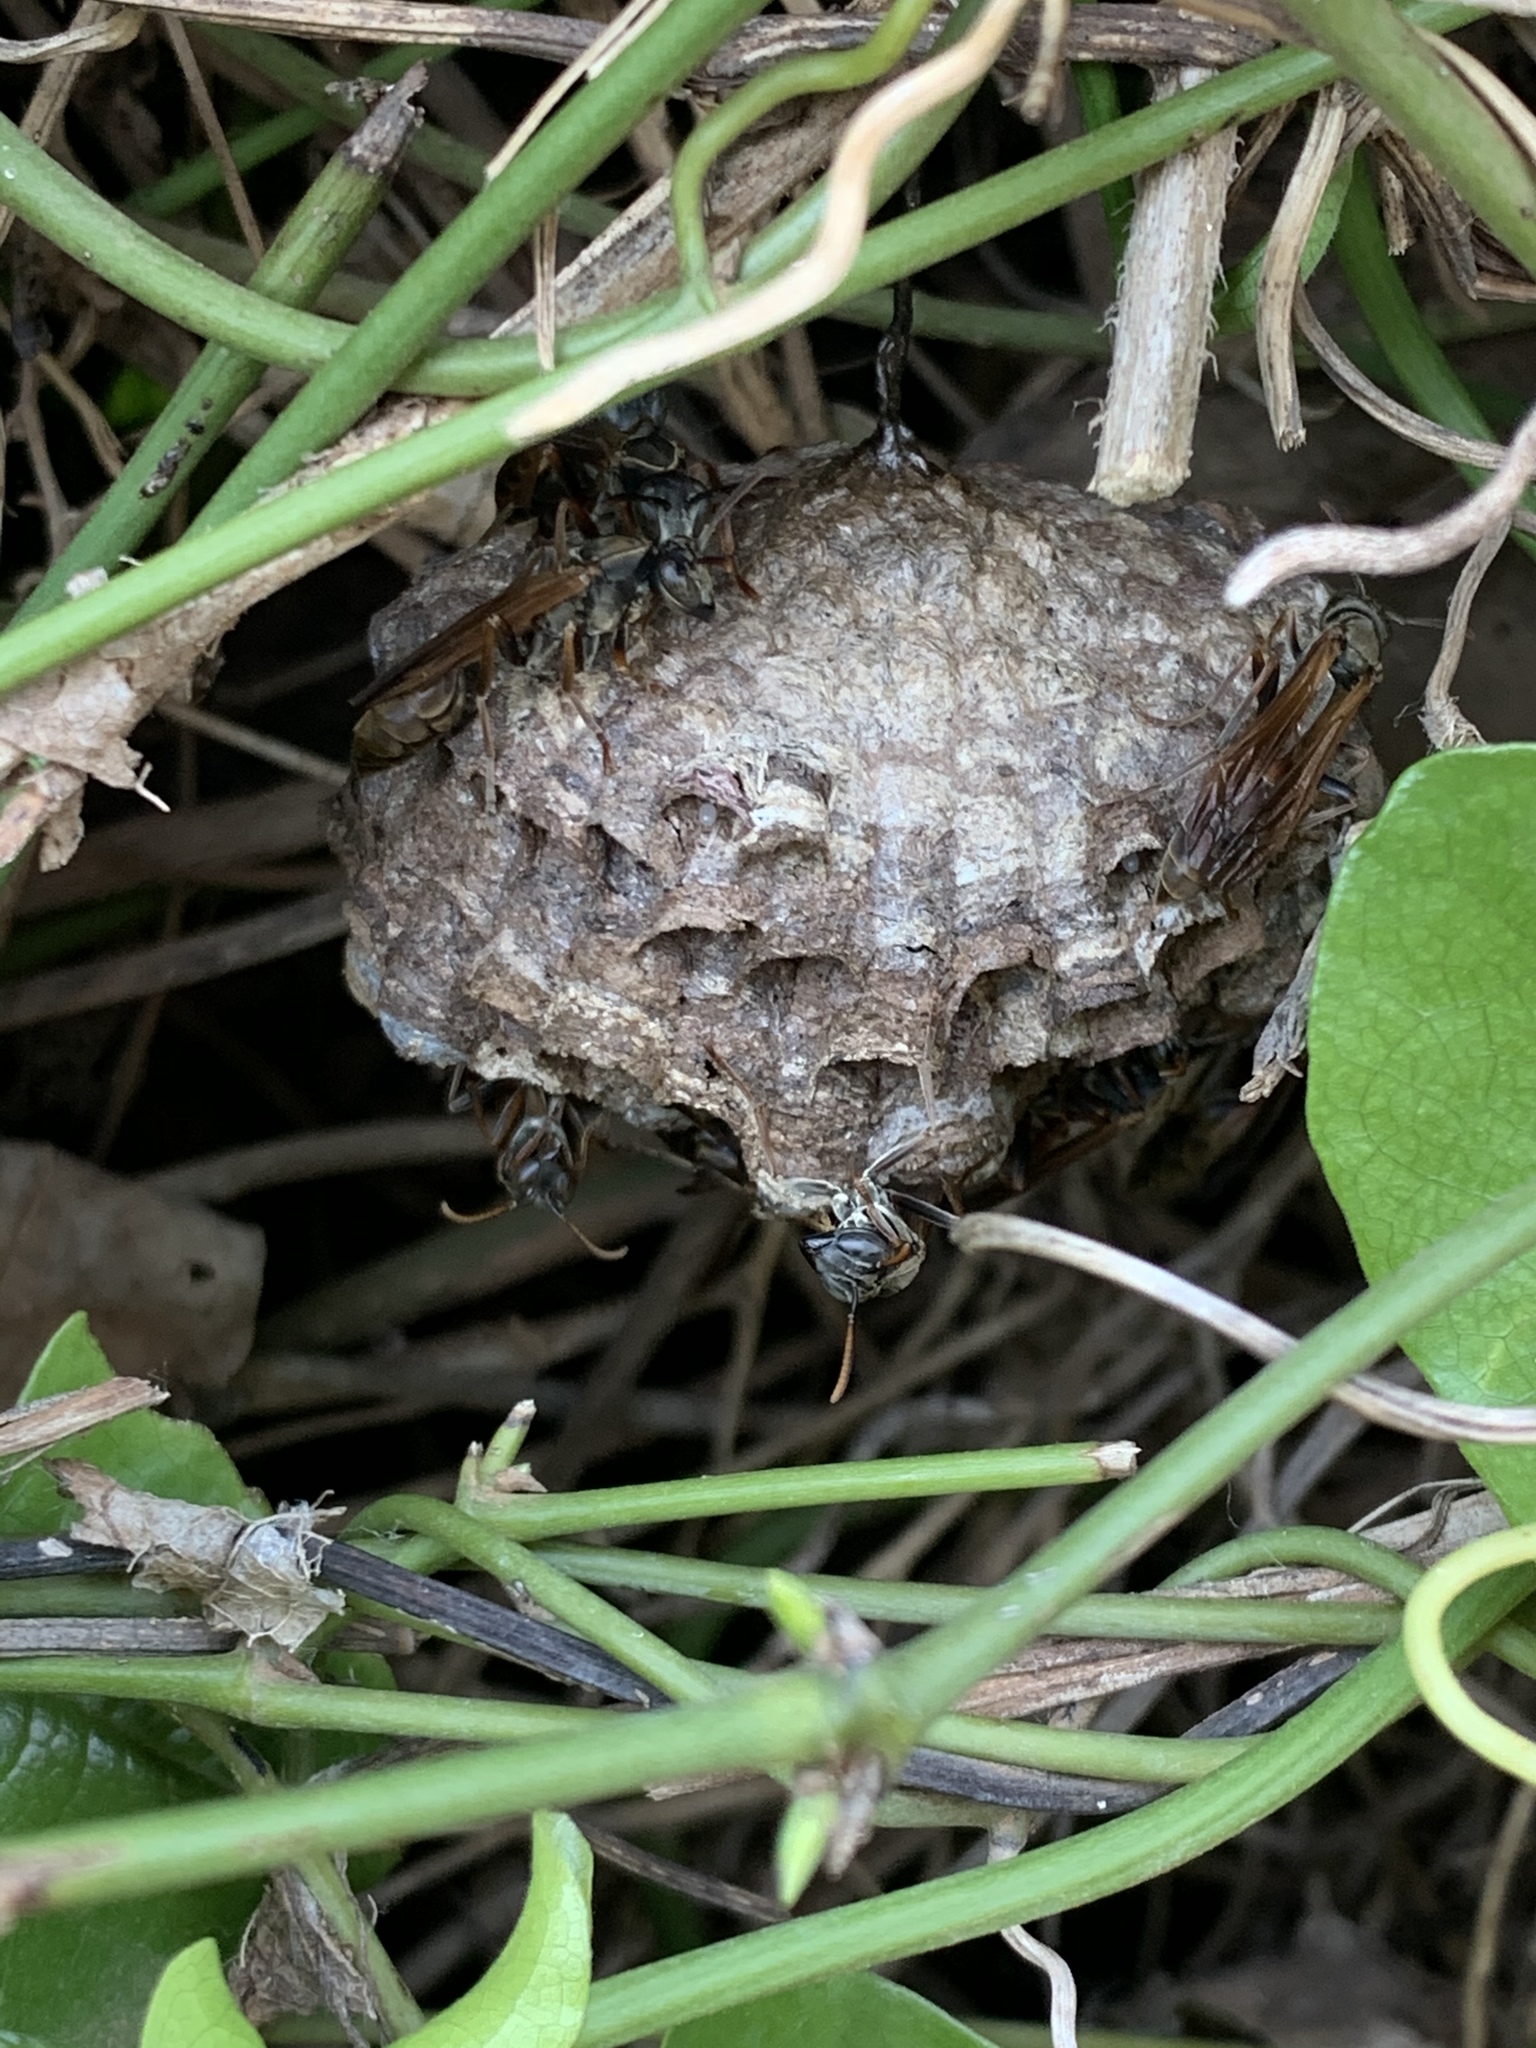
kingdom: Animalia
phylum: Arthropoda
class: Insecta
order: Hymenoptera
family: Vespidae
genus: Mischocyttarus
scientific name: Mischocyttarus drewseni
